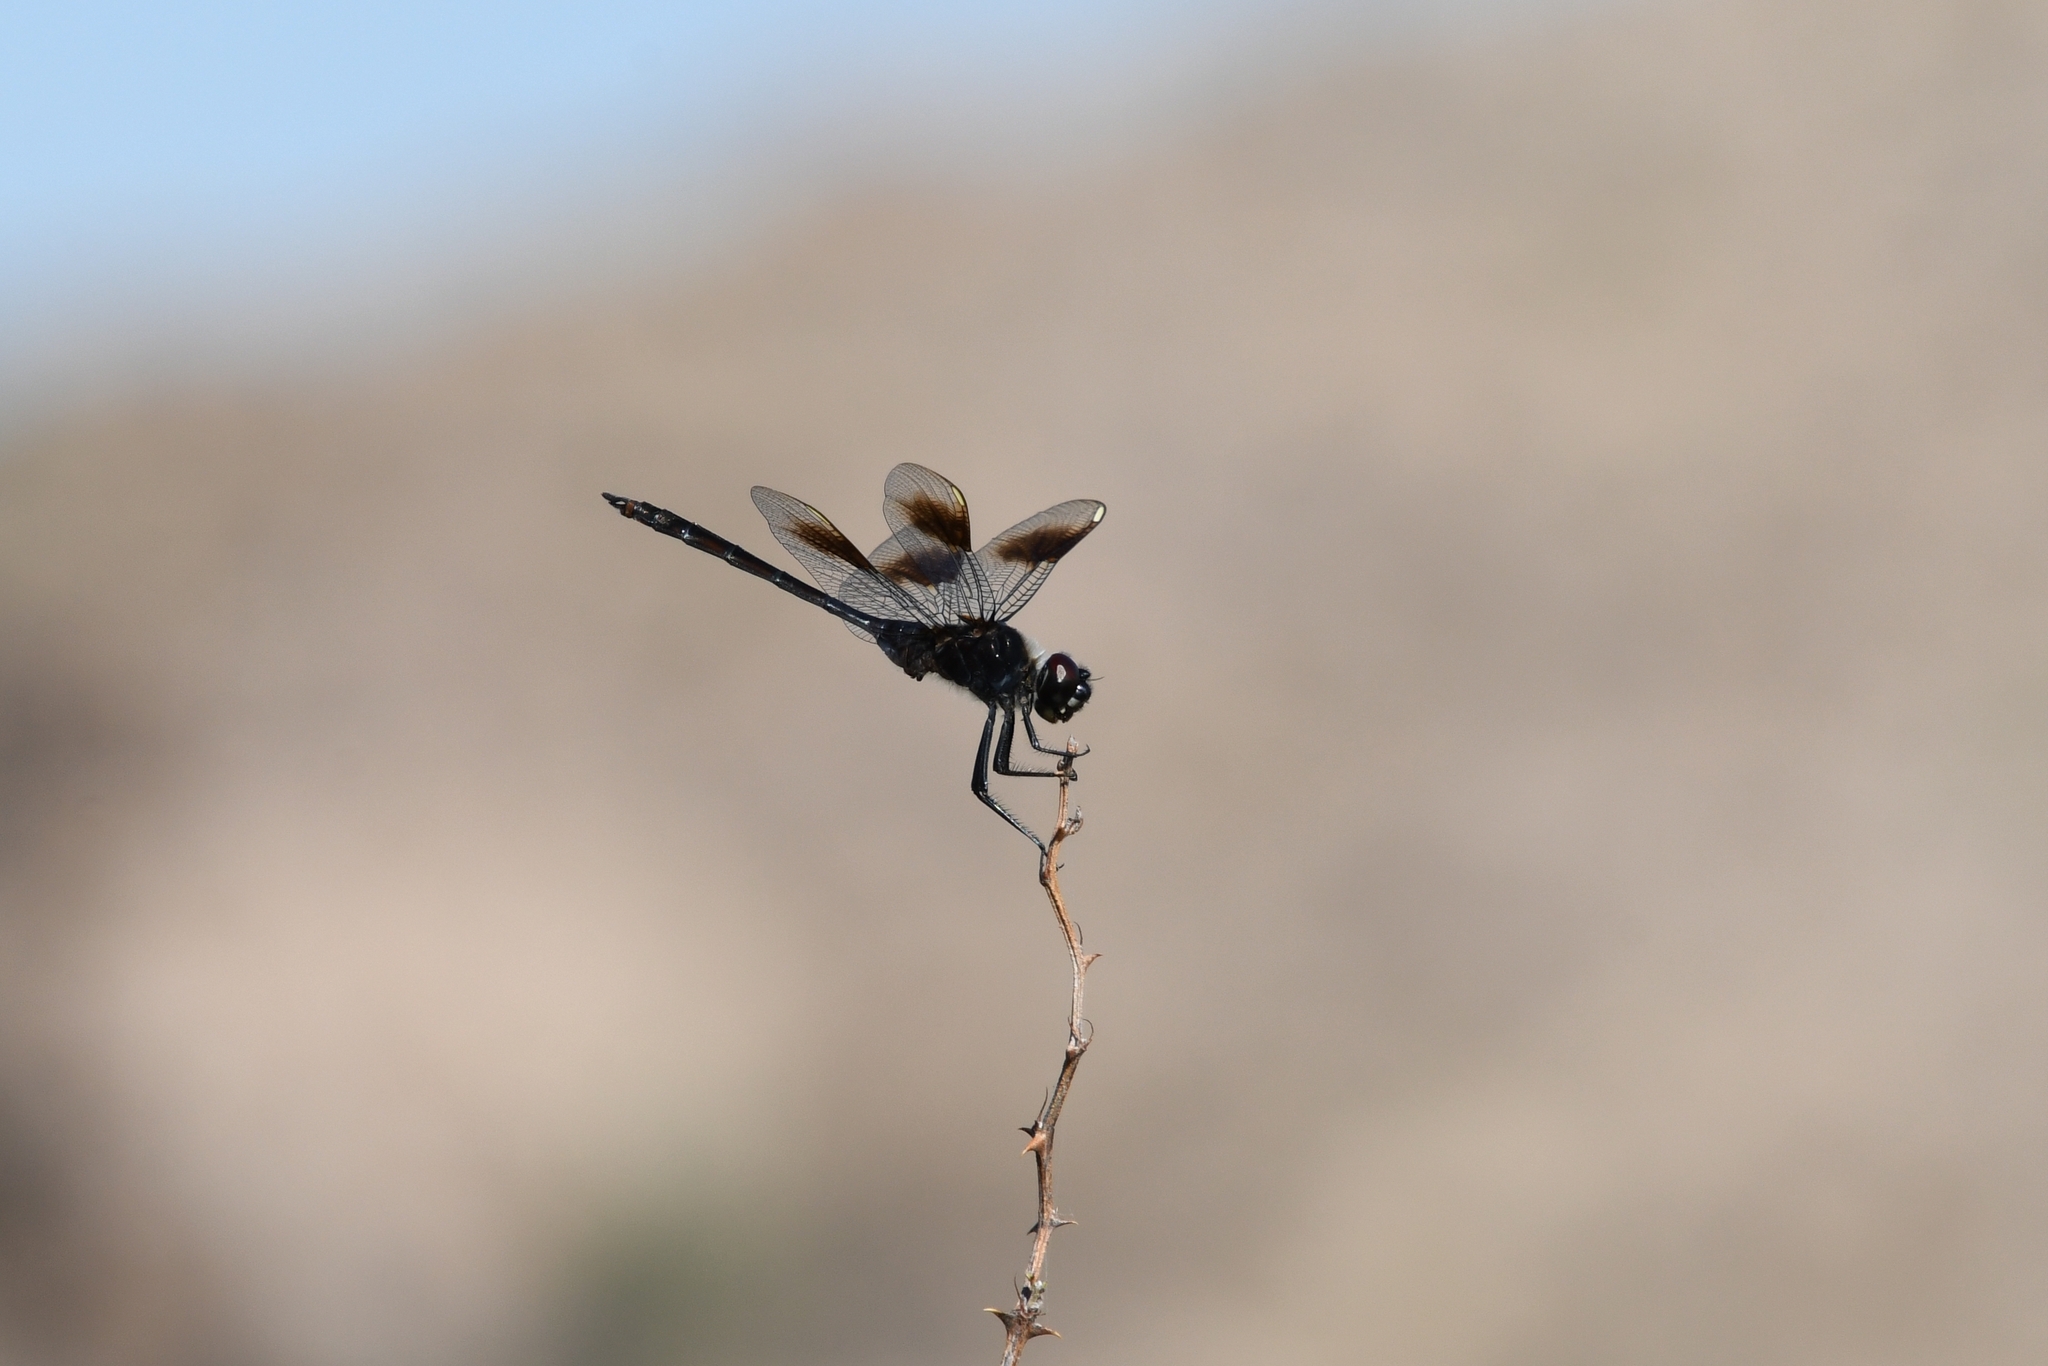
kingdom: Animalia
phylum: Arthropoda
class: Insecta
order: Odonata
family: Libellulidae
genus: Brachymesia
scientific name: Brachymesia gravida
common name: Four-spotted pennant
